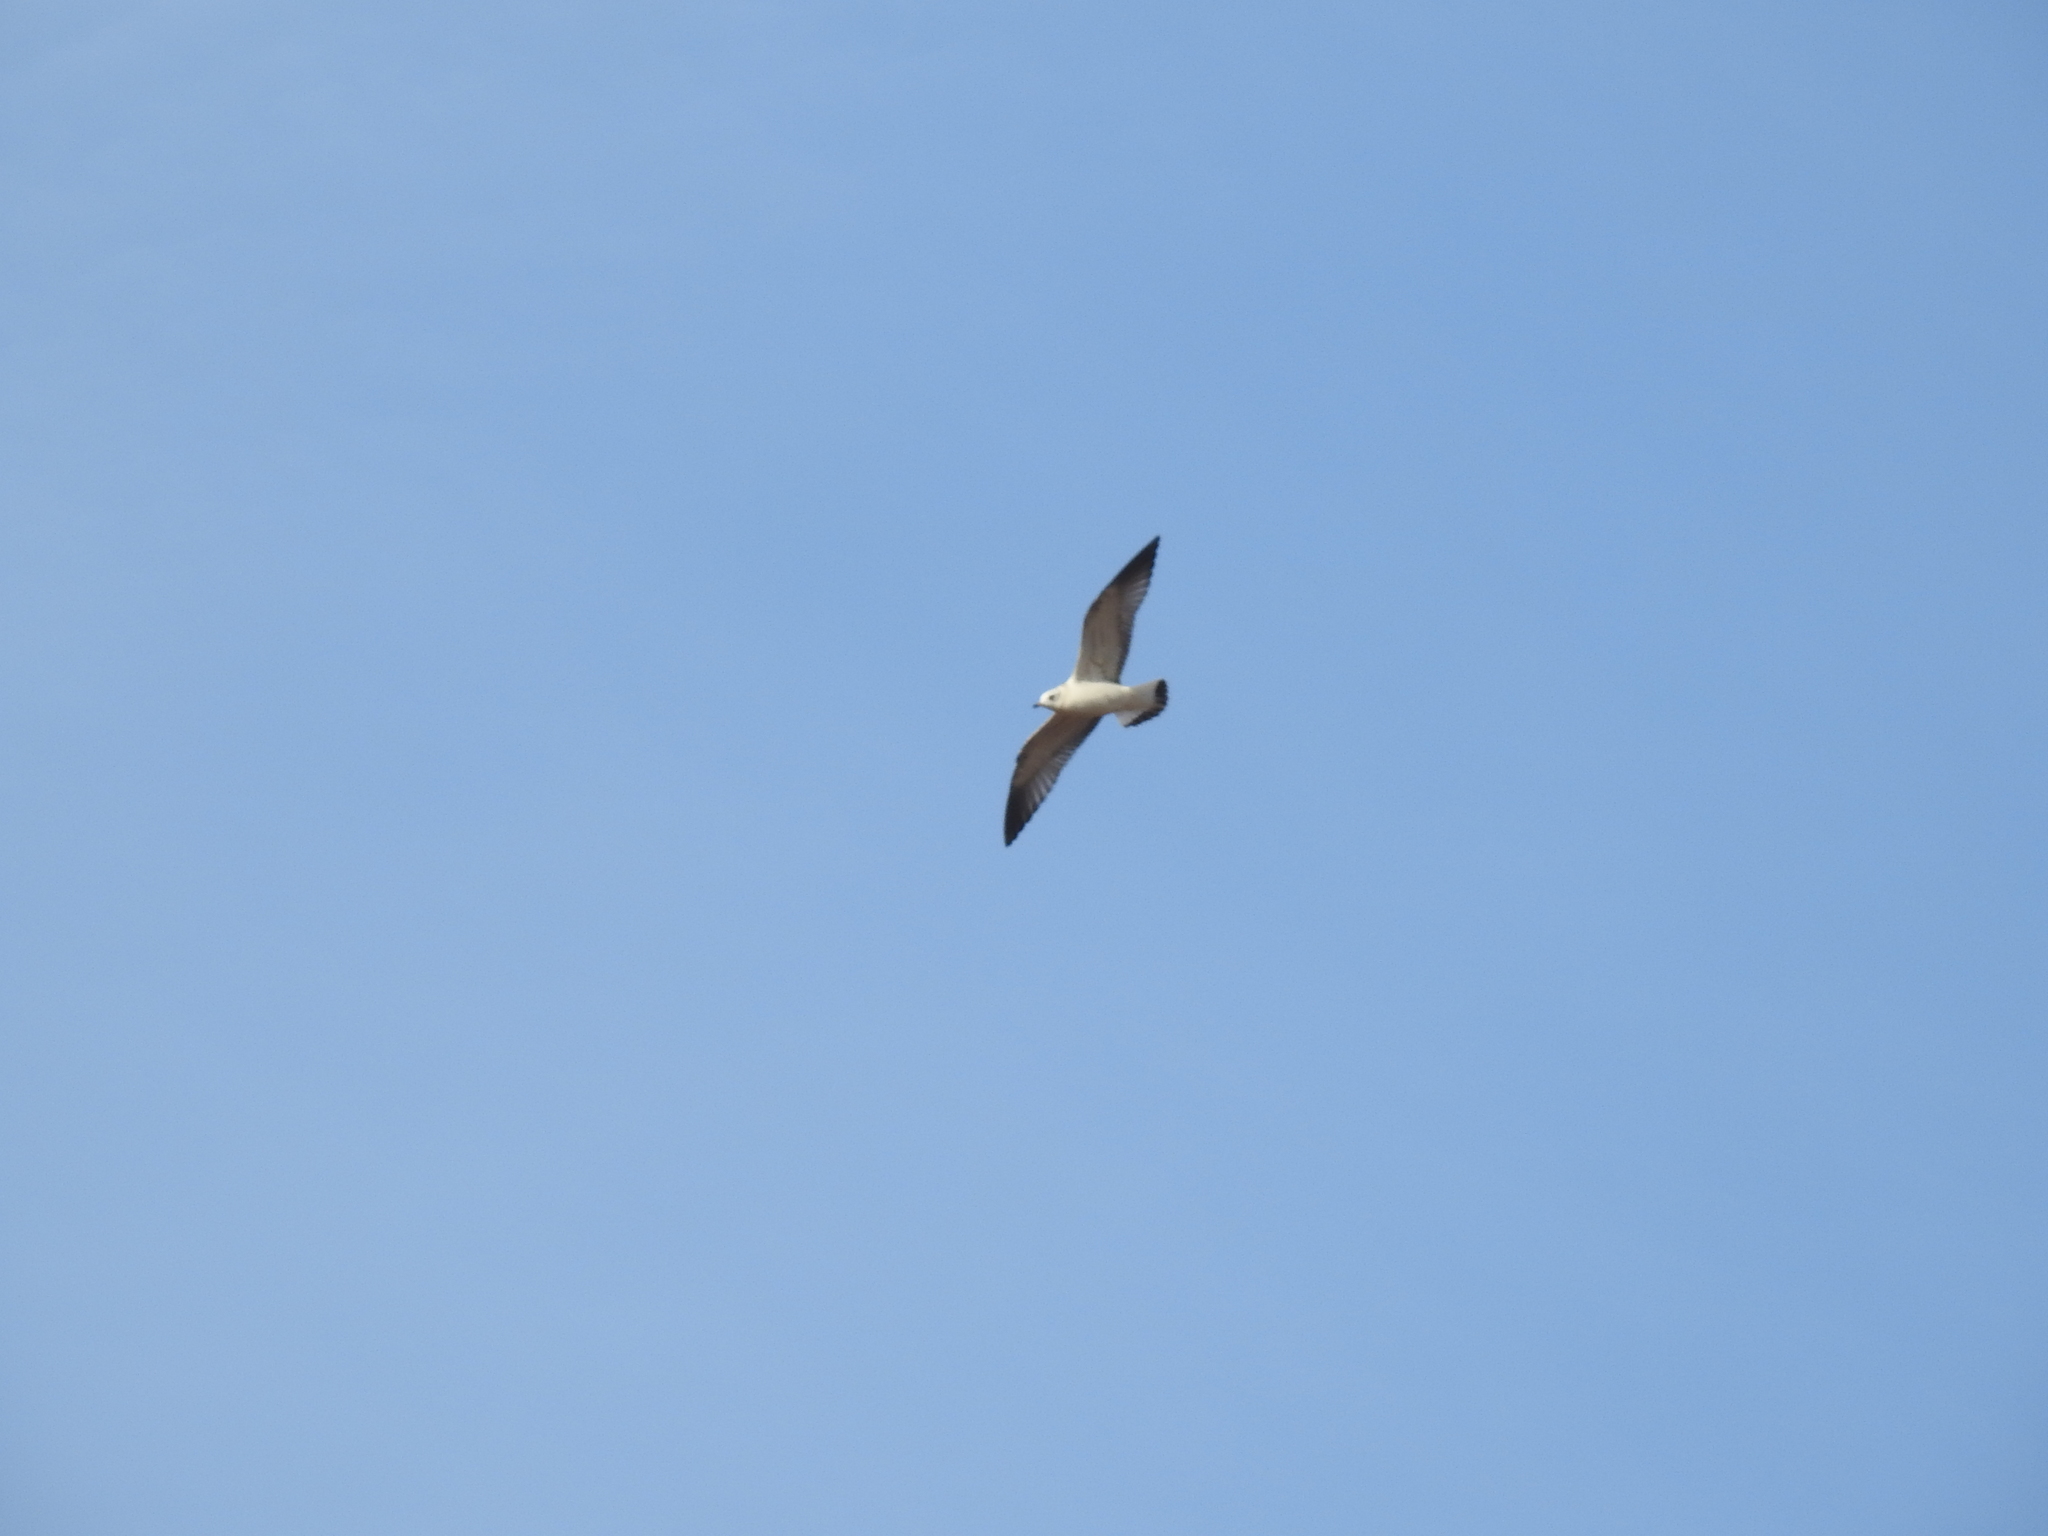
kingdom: Animalia
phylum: Chordata
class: Aves
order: Charadriiformes
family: Laridae
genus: Larus
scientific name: Larus canus
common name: Mew gull
